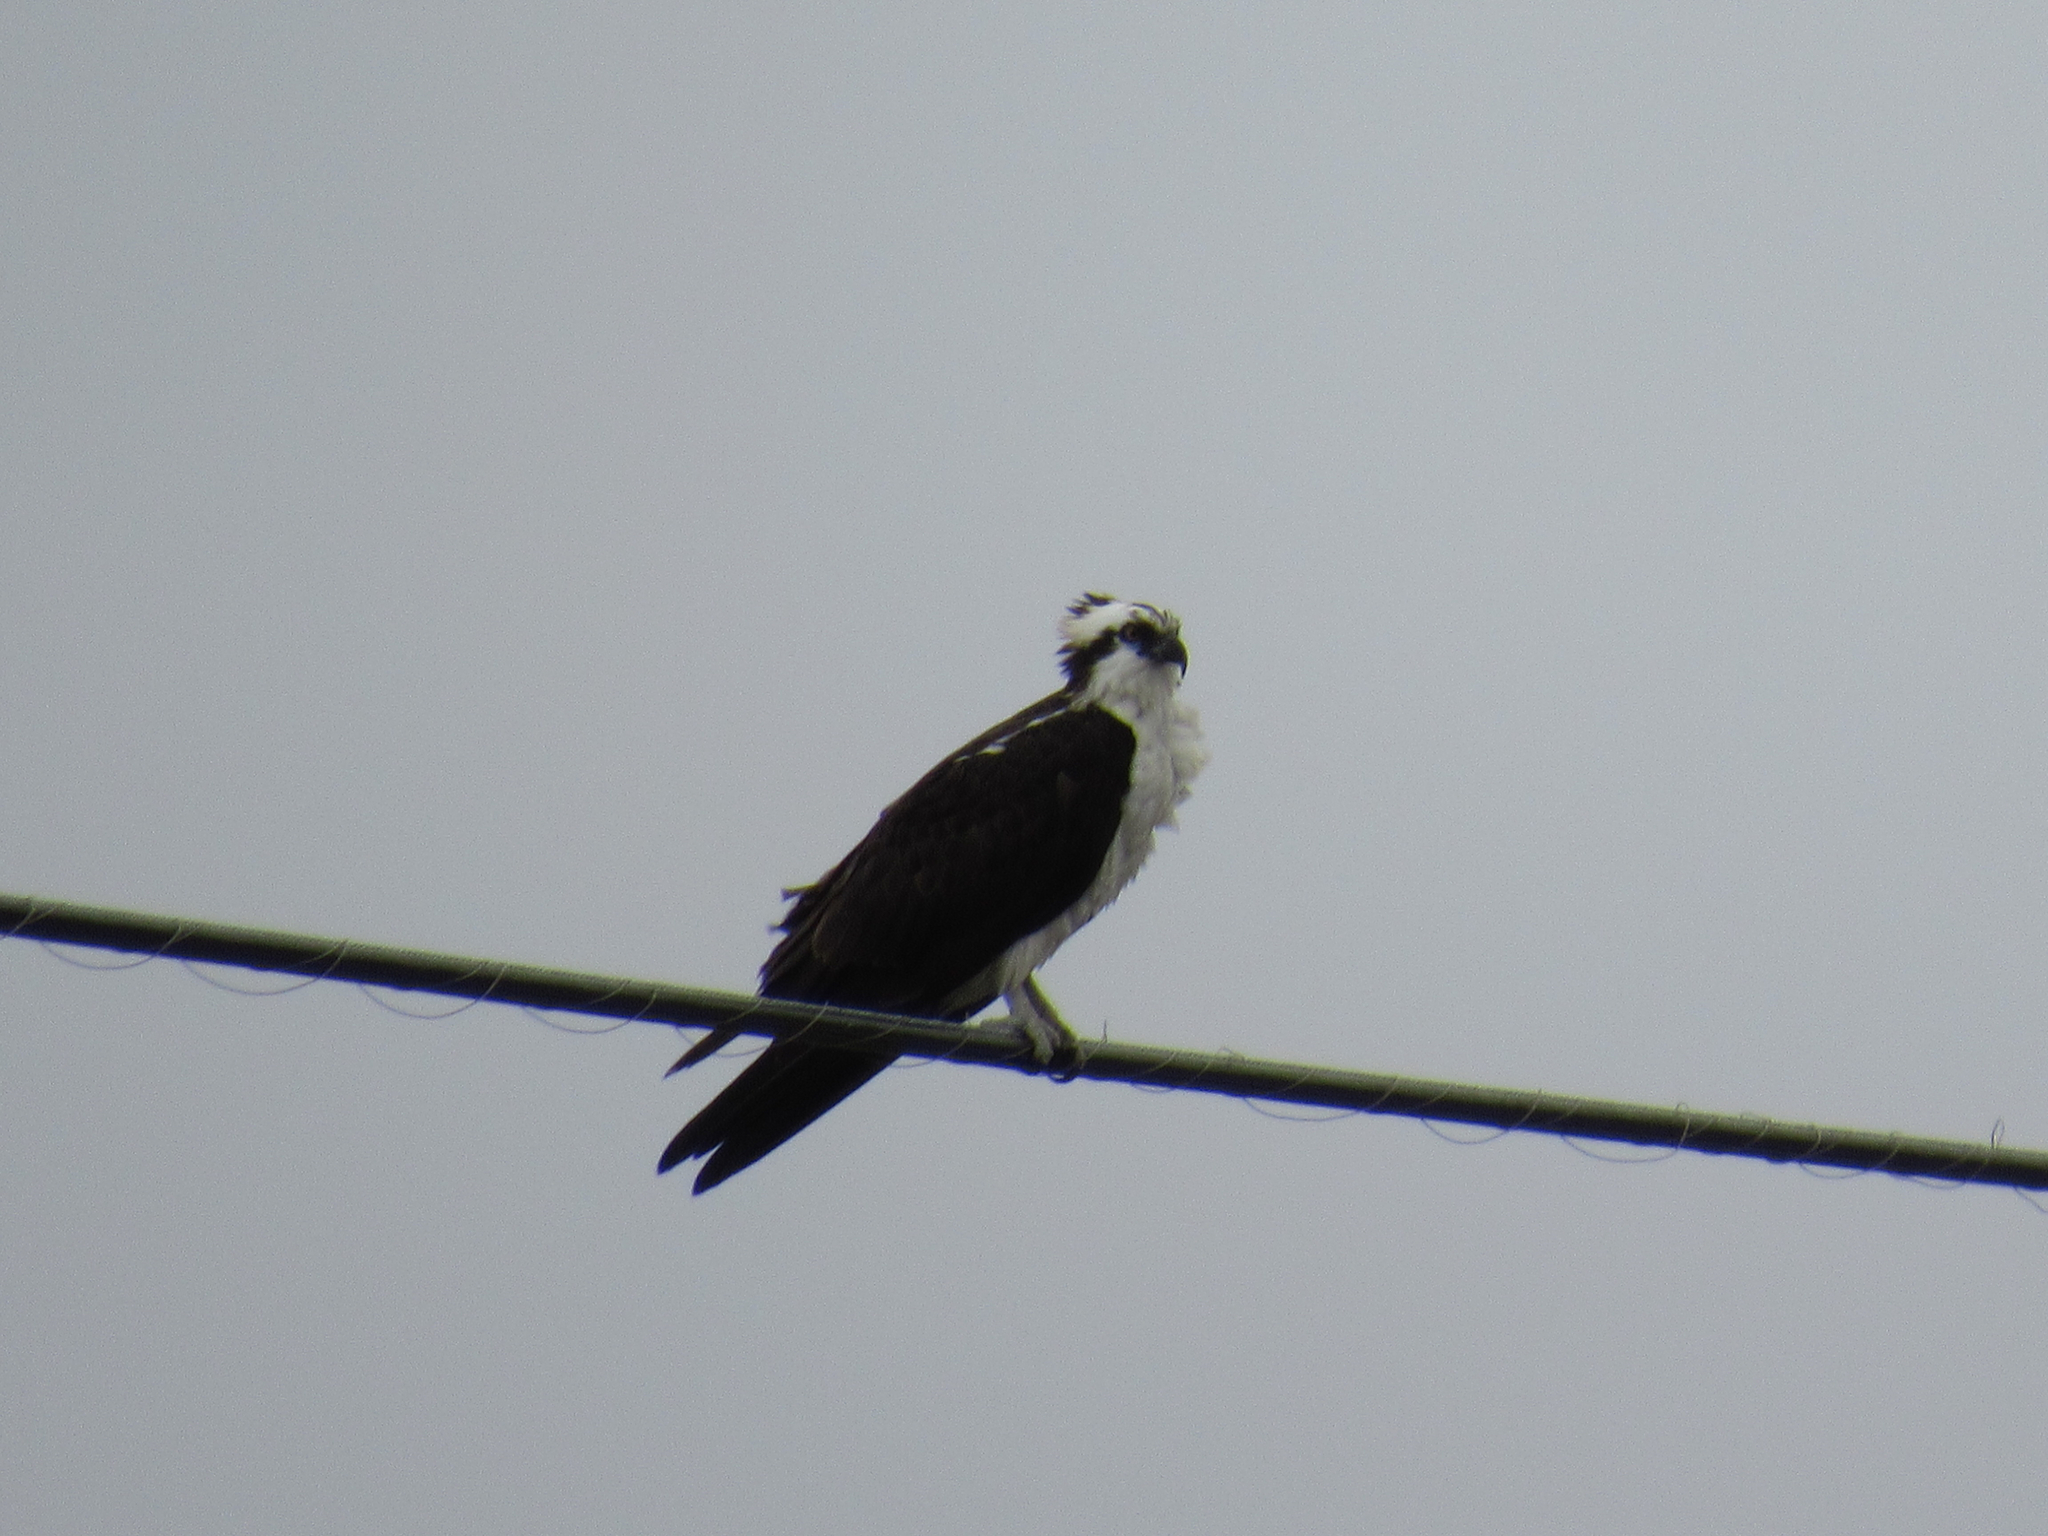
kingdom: Animalia
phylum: Chordata
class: Aves
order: Accipitriformes
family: Pandionidae
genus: Pandion
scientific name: Pandion haliaetus
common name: Osprey
